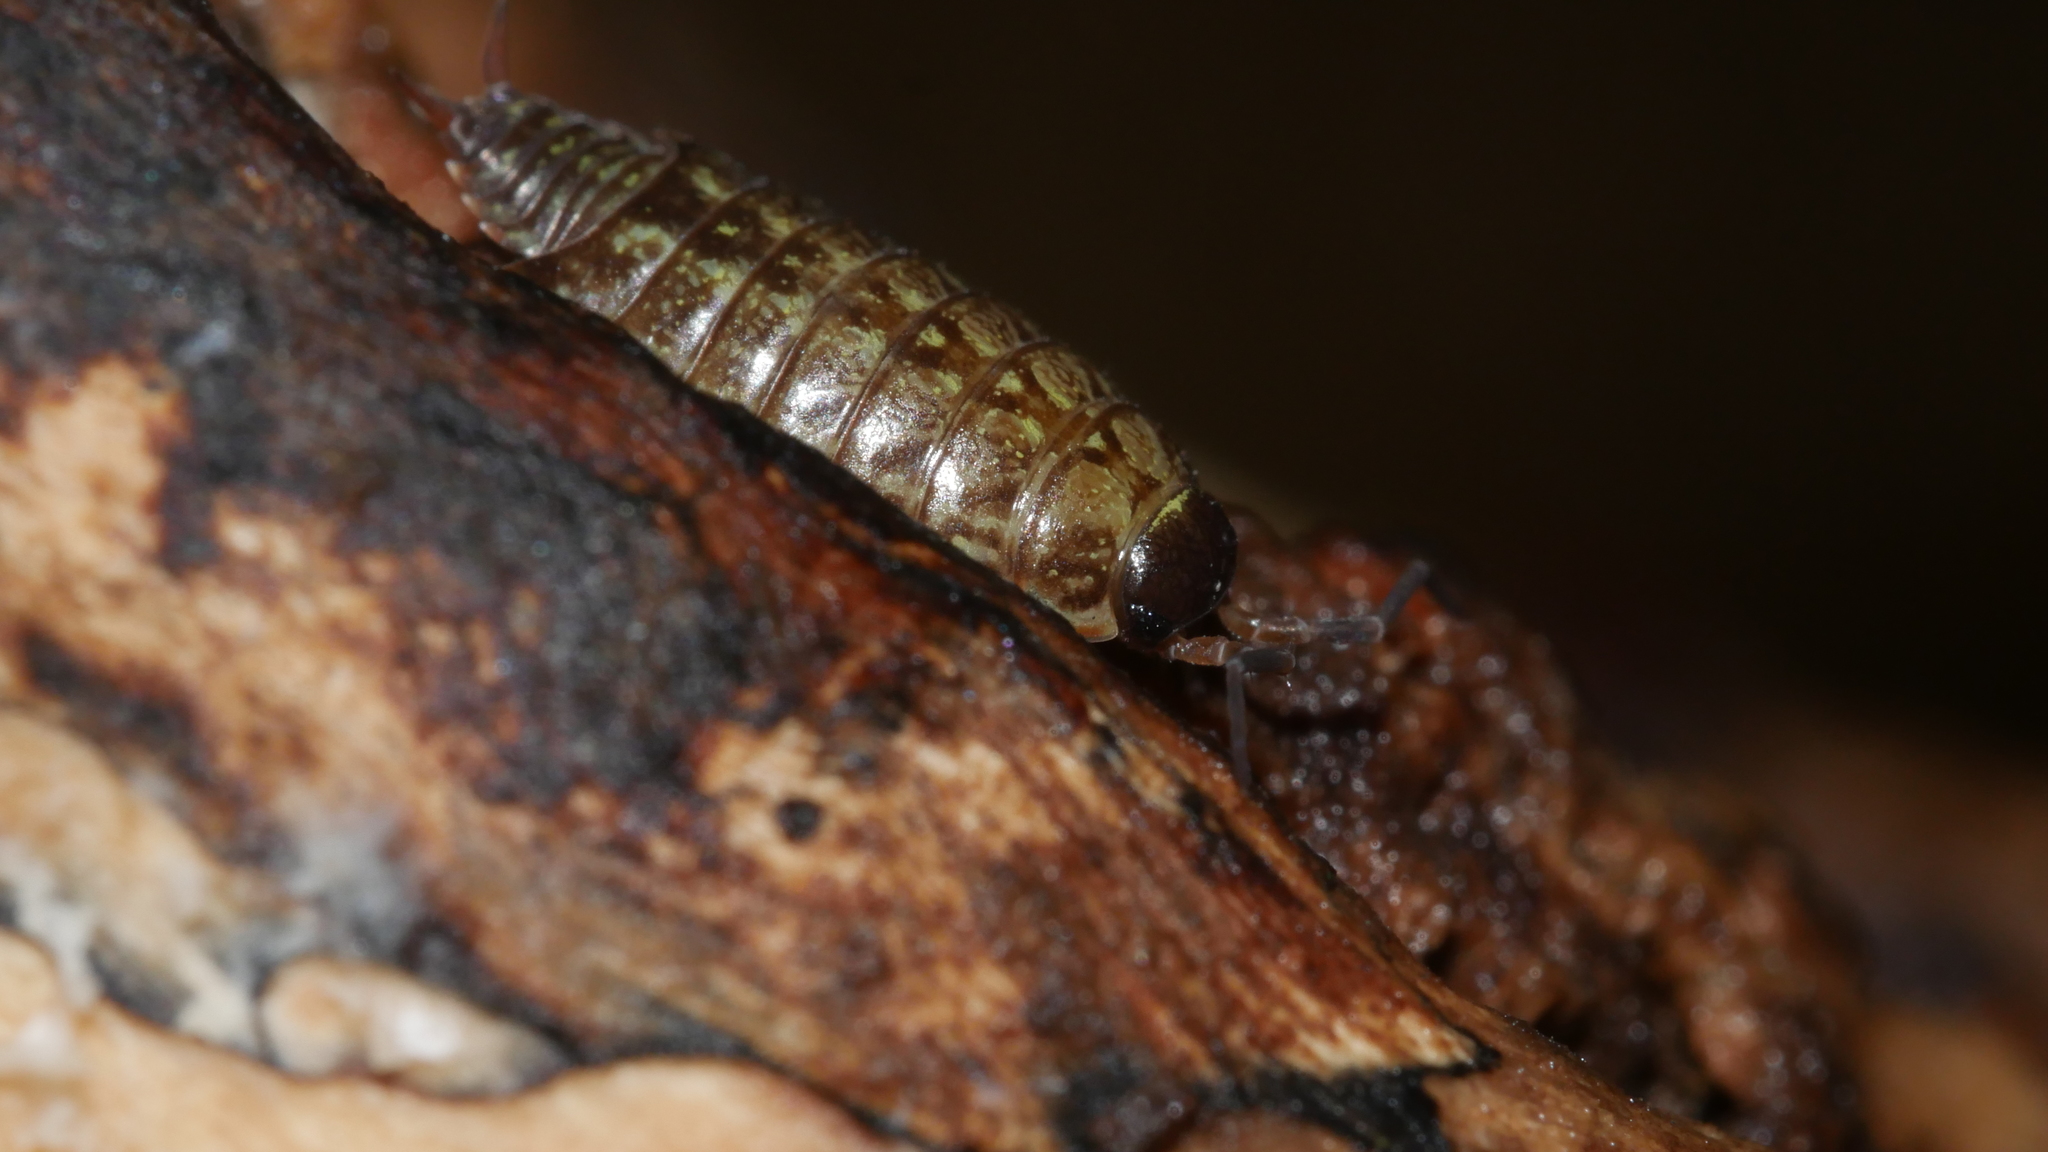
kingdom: Animalia
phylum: Arthropoda
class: Malacostraca
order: Isopoda
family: Philosciidae
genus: Philoscia
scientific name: Philoscia muscorum
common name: Common striped woodlouse
